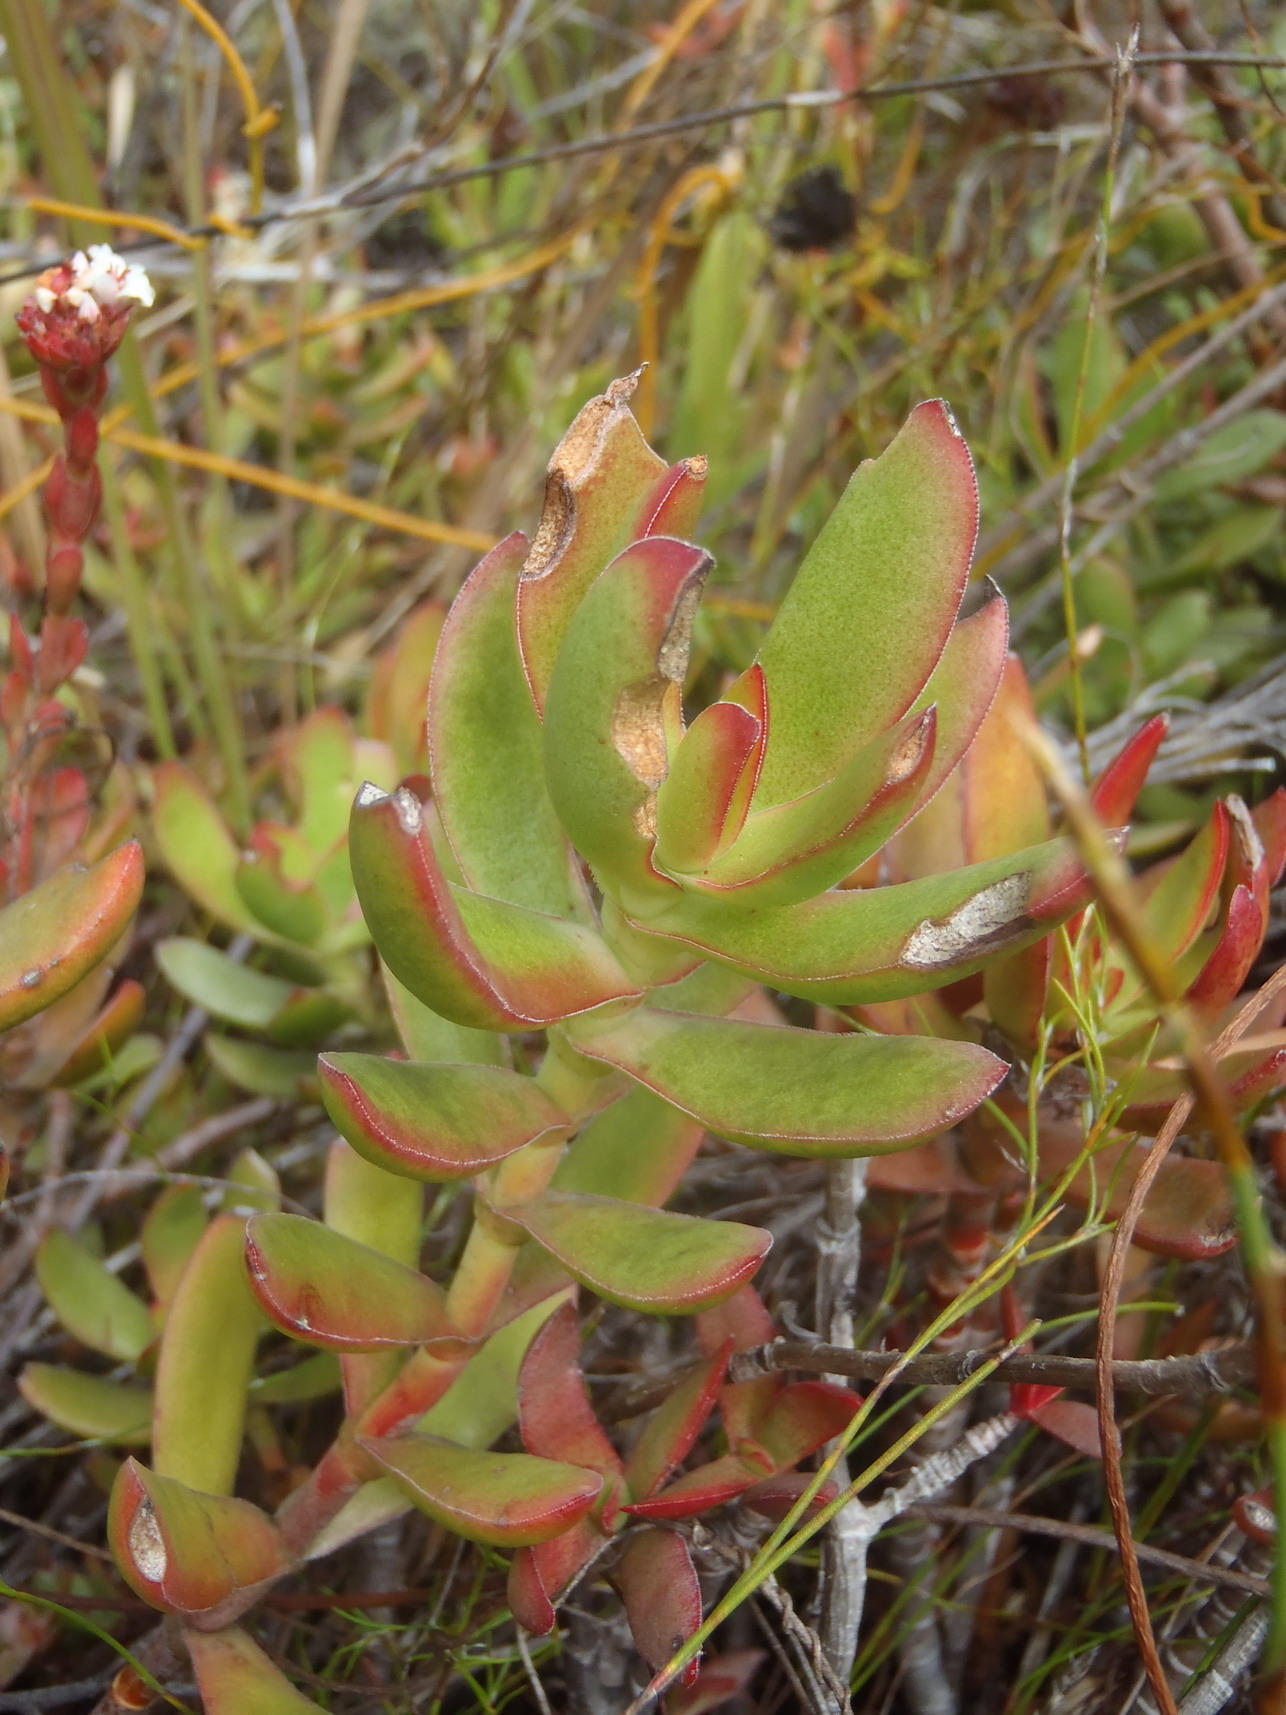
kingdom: Plantae
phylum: Tracheophyta
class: Magnoliopsida
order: Saxifragales
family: Crassulaceae
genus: Crassula
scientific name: Crassula rubricaulis
